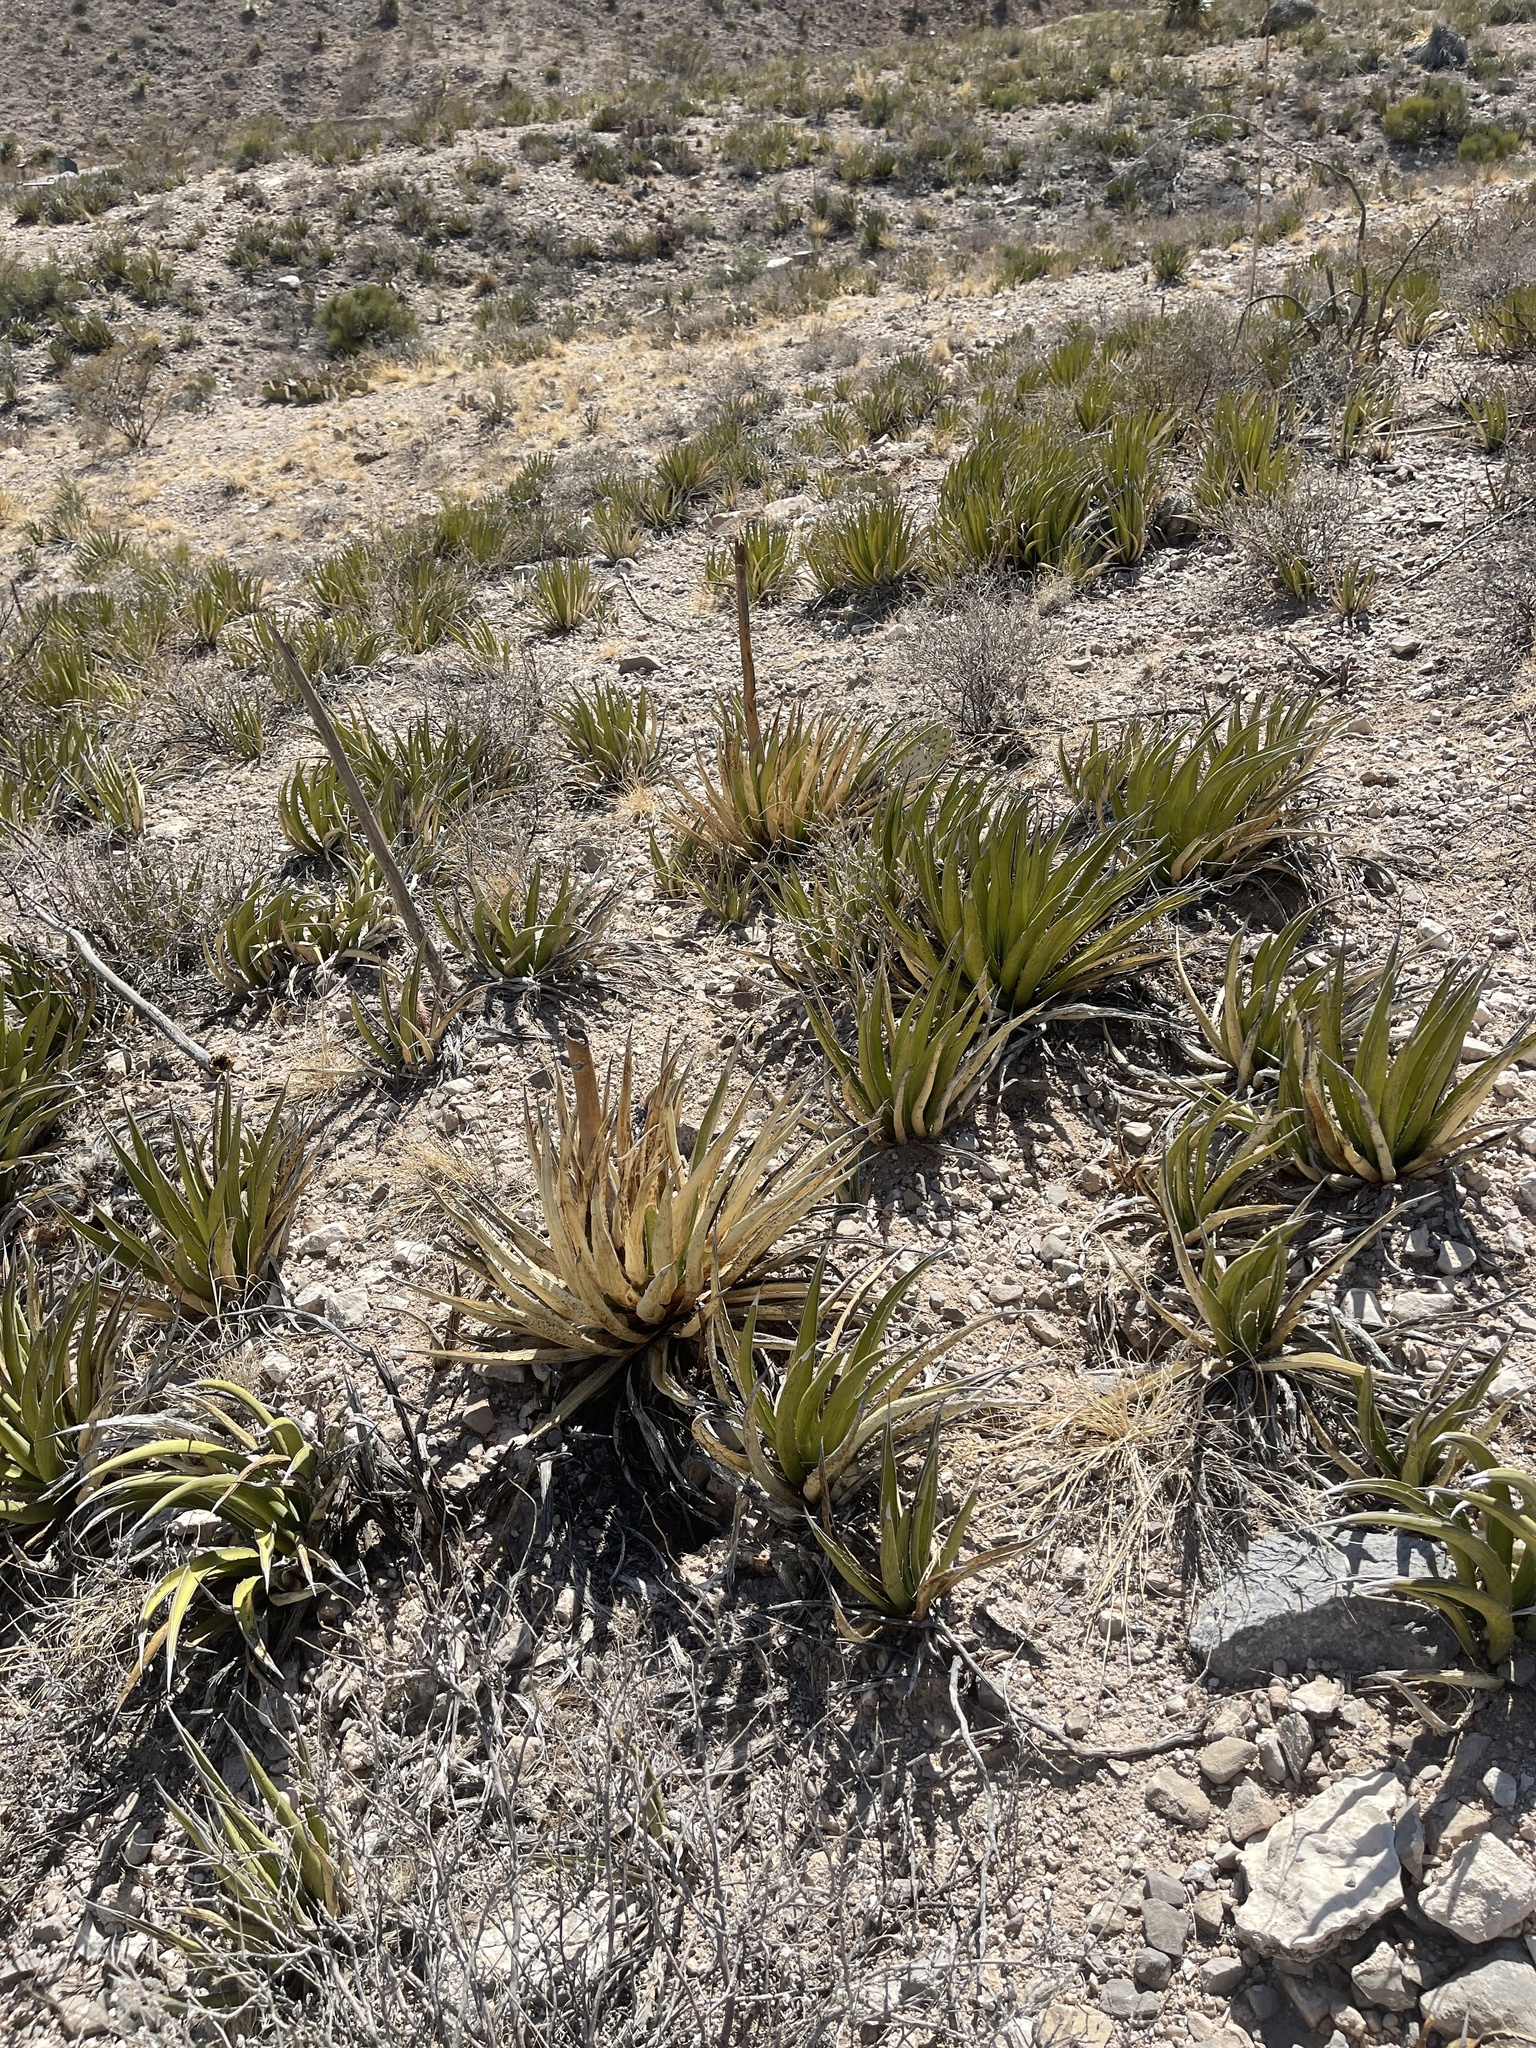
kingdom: Plantae
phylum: Tracheophyta
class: Liliopsida
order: Asparagales
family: Asparagaceae
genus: Agave
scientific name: Agave lechuguilla
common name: Lecheguilla agave
